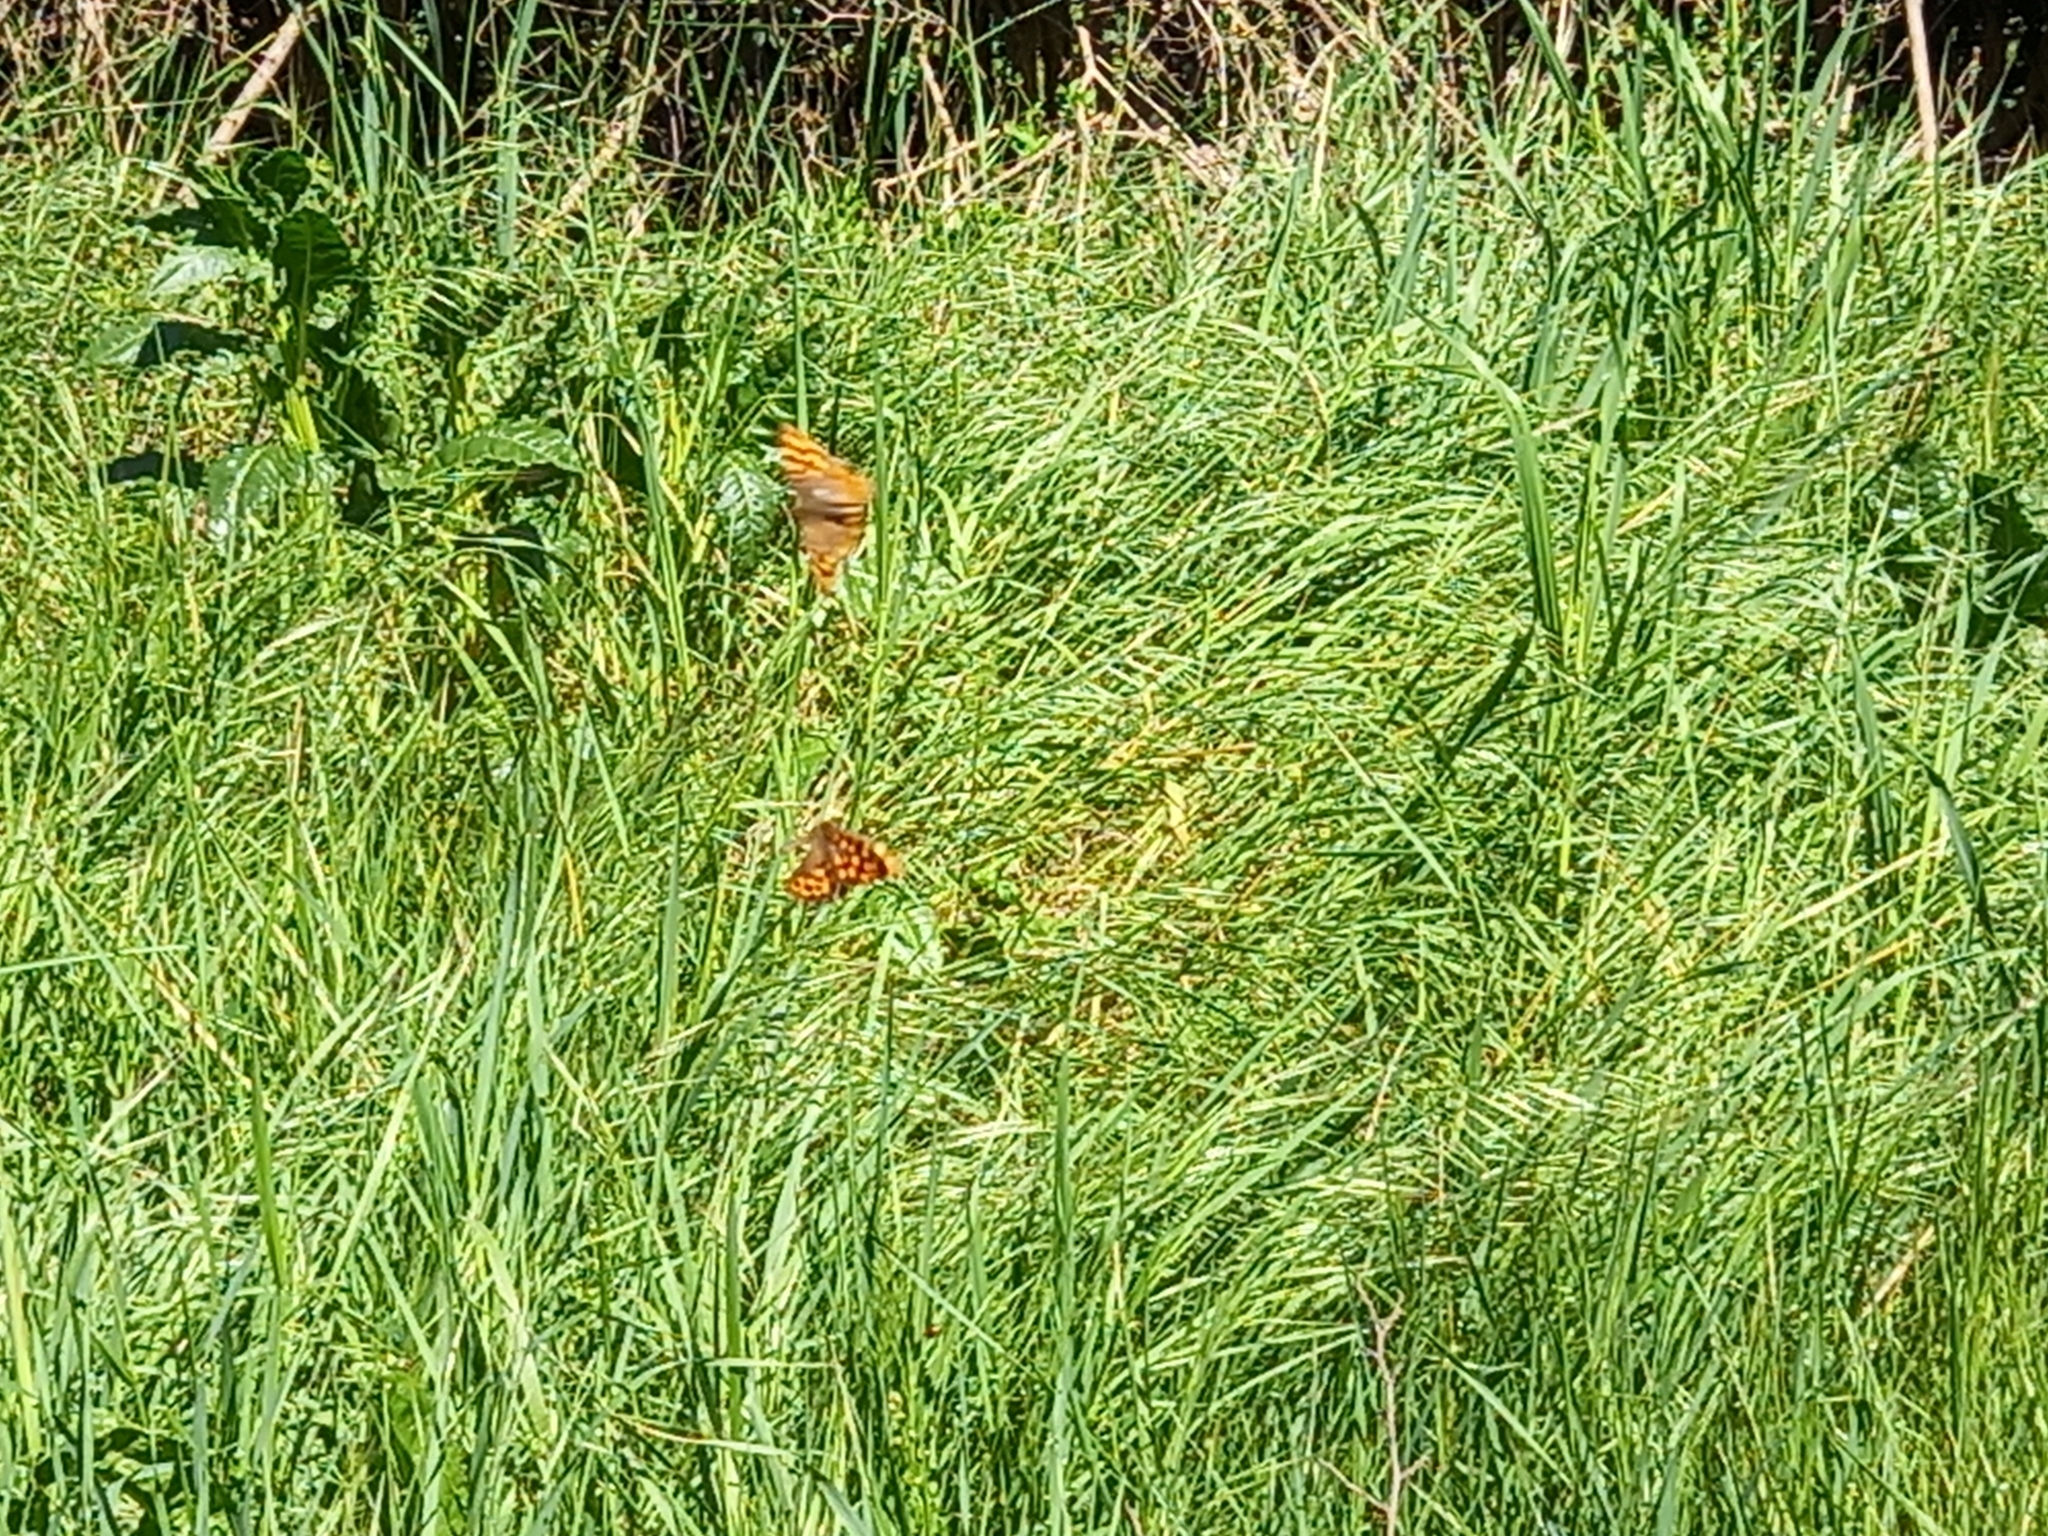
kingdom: Animalia
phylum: Arthropoda
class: Insecta
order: Lepidoptera
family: Nymphalidae
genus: Pararge
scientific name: Pararge aegeria
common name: Speckled wood
